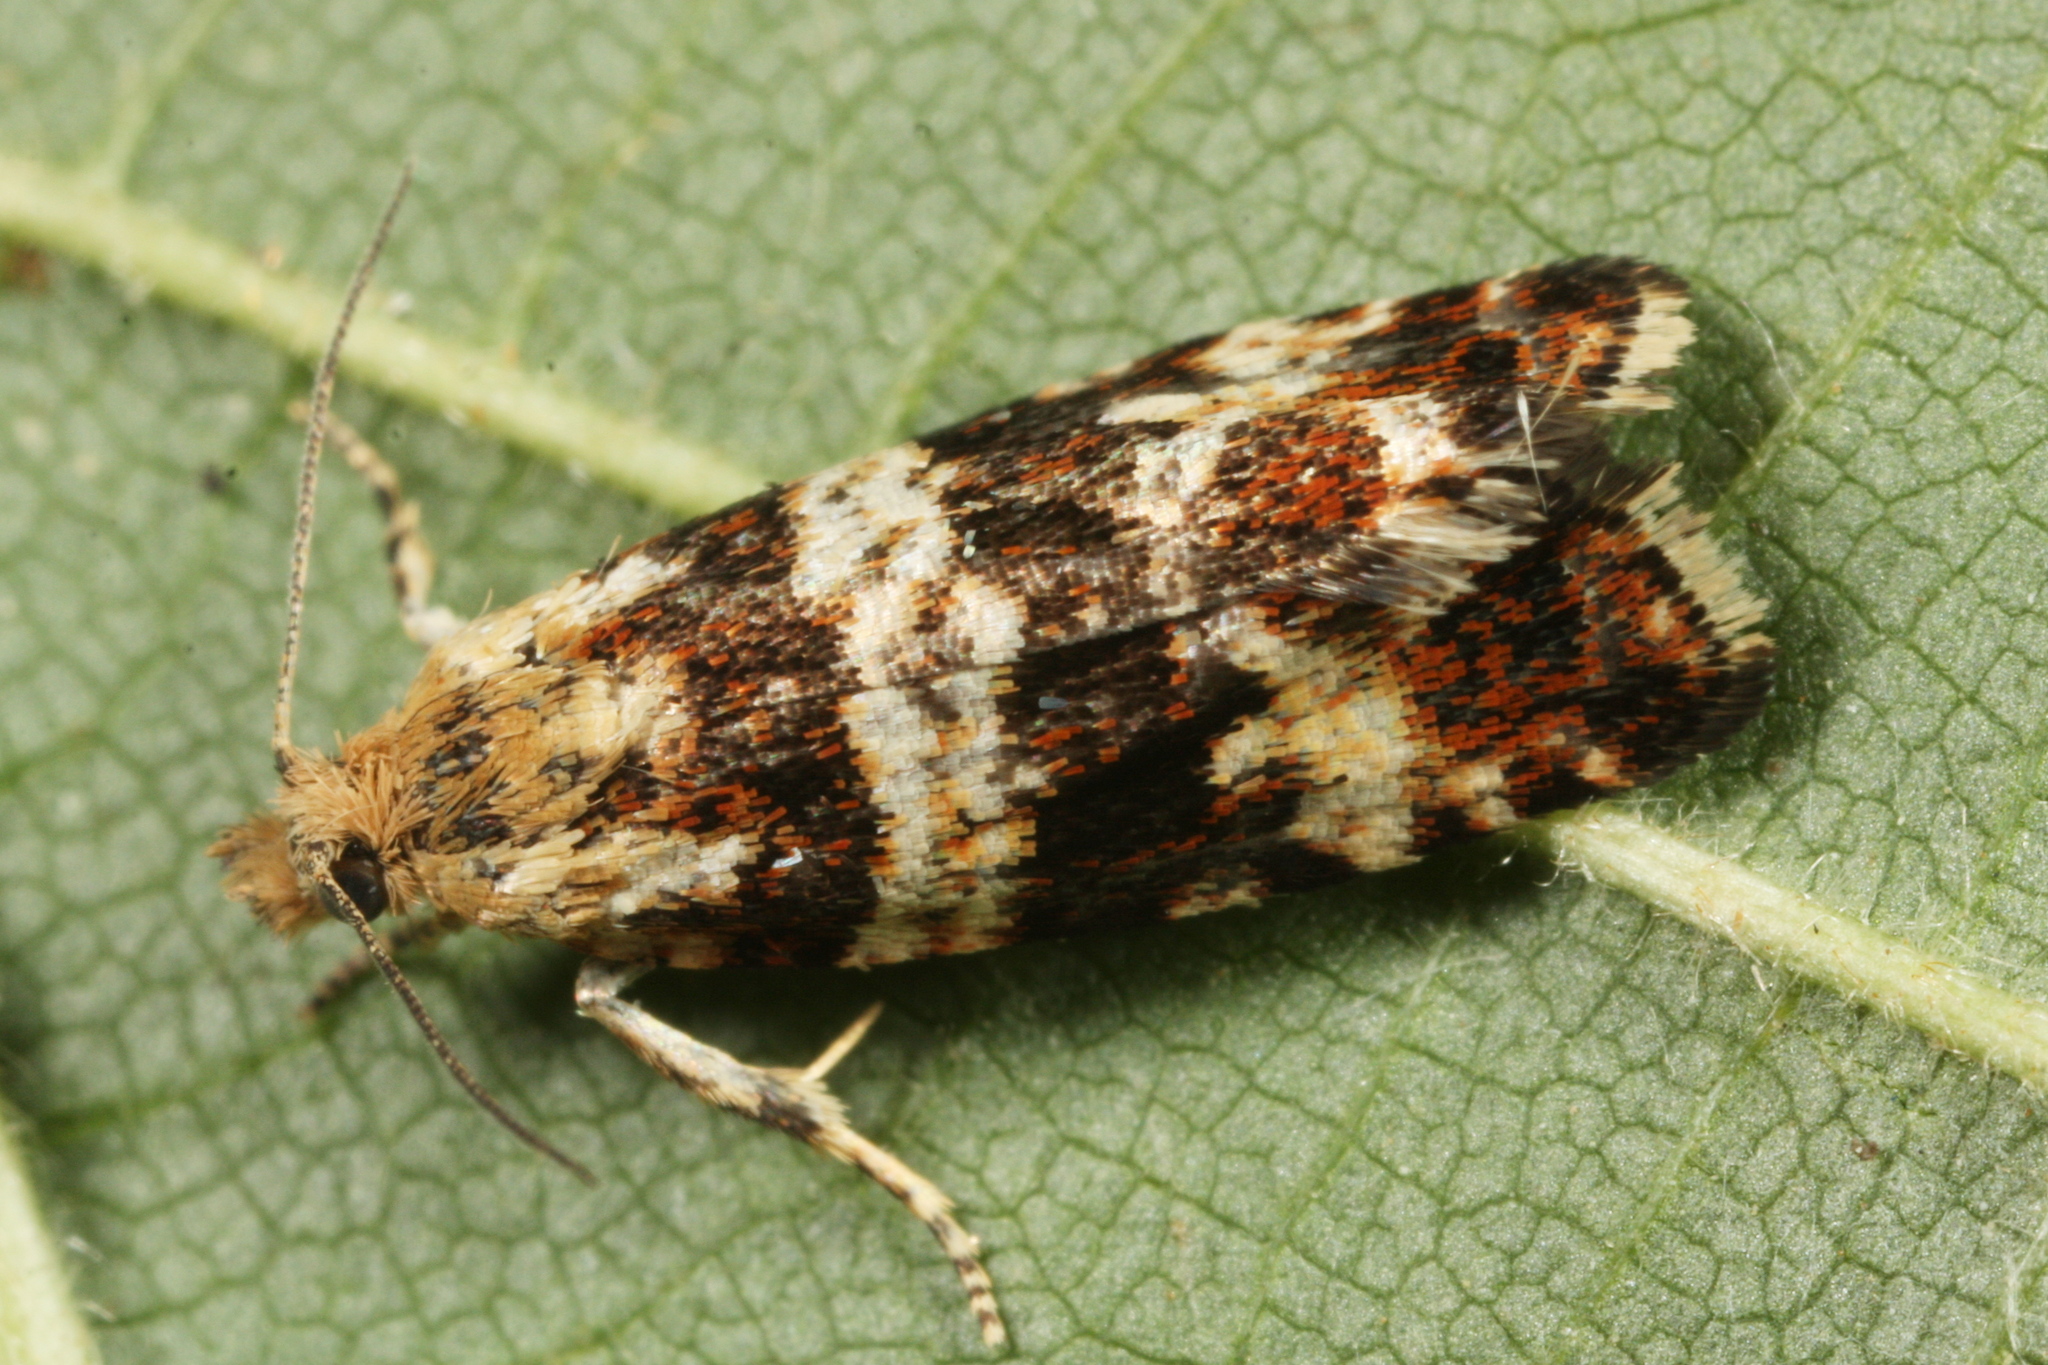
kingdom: Animalia
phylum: Arthropoda
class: Insecta
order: Lepidoptera
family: Tortricidae
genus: Olethreutes
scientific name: Olethreutes palustrana
